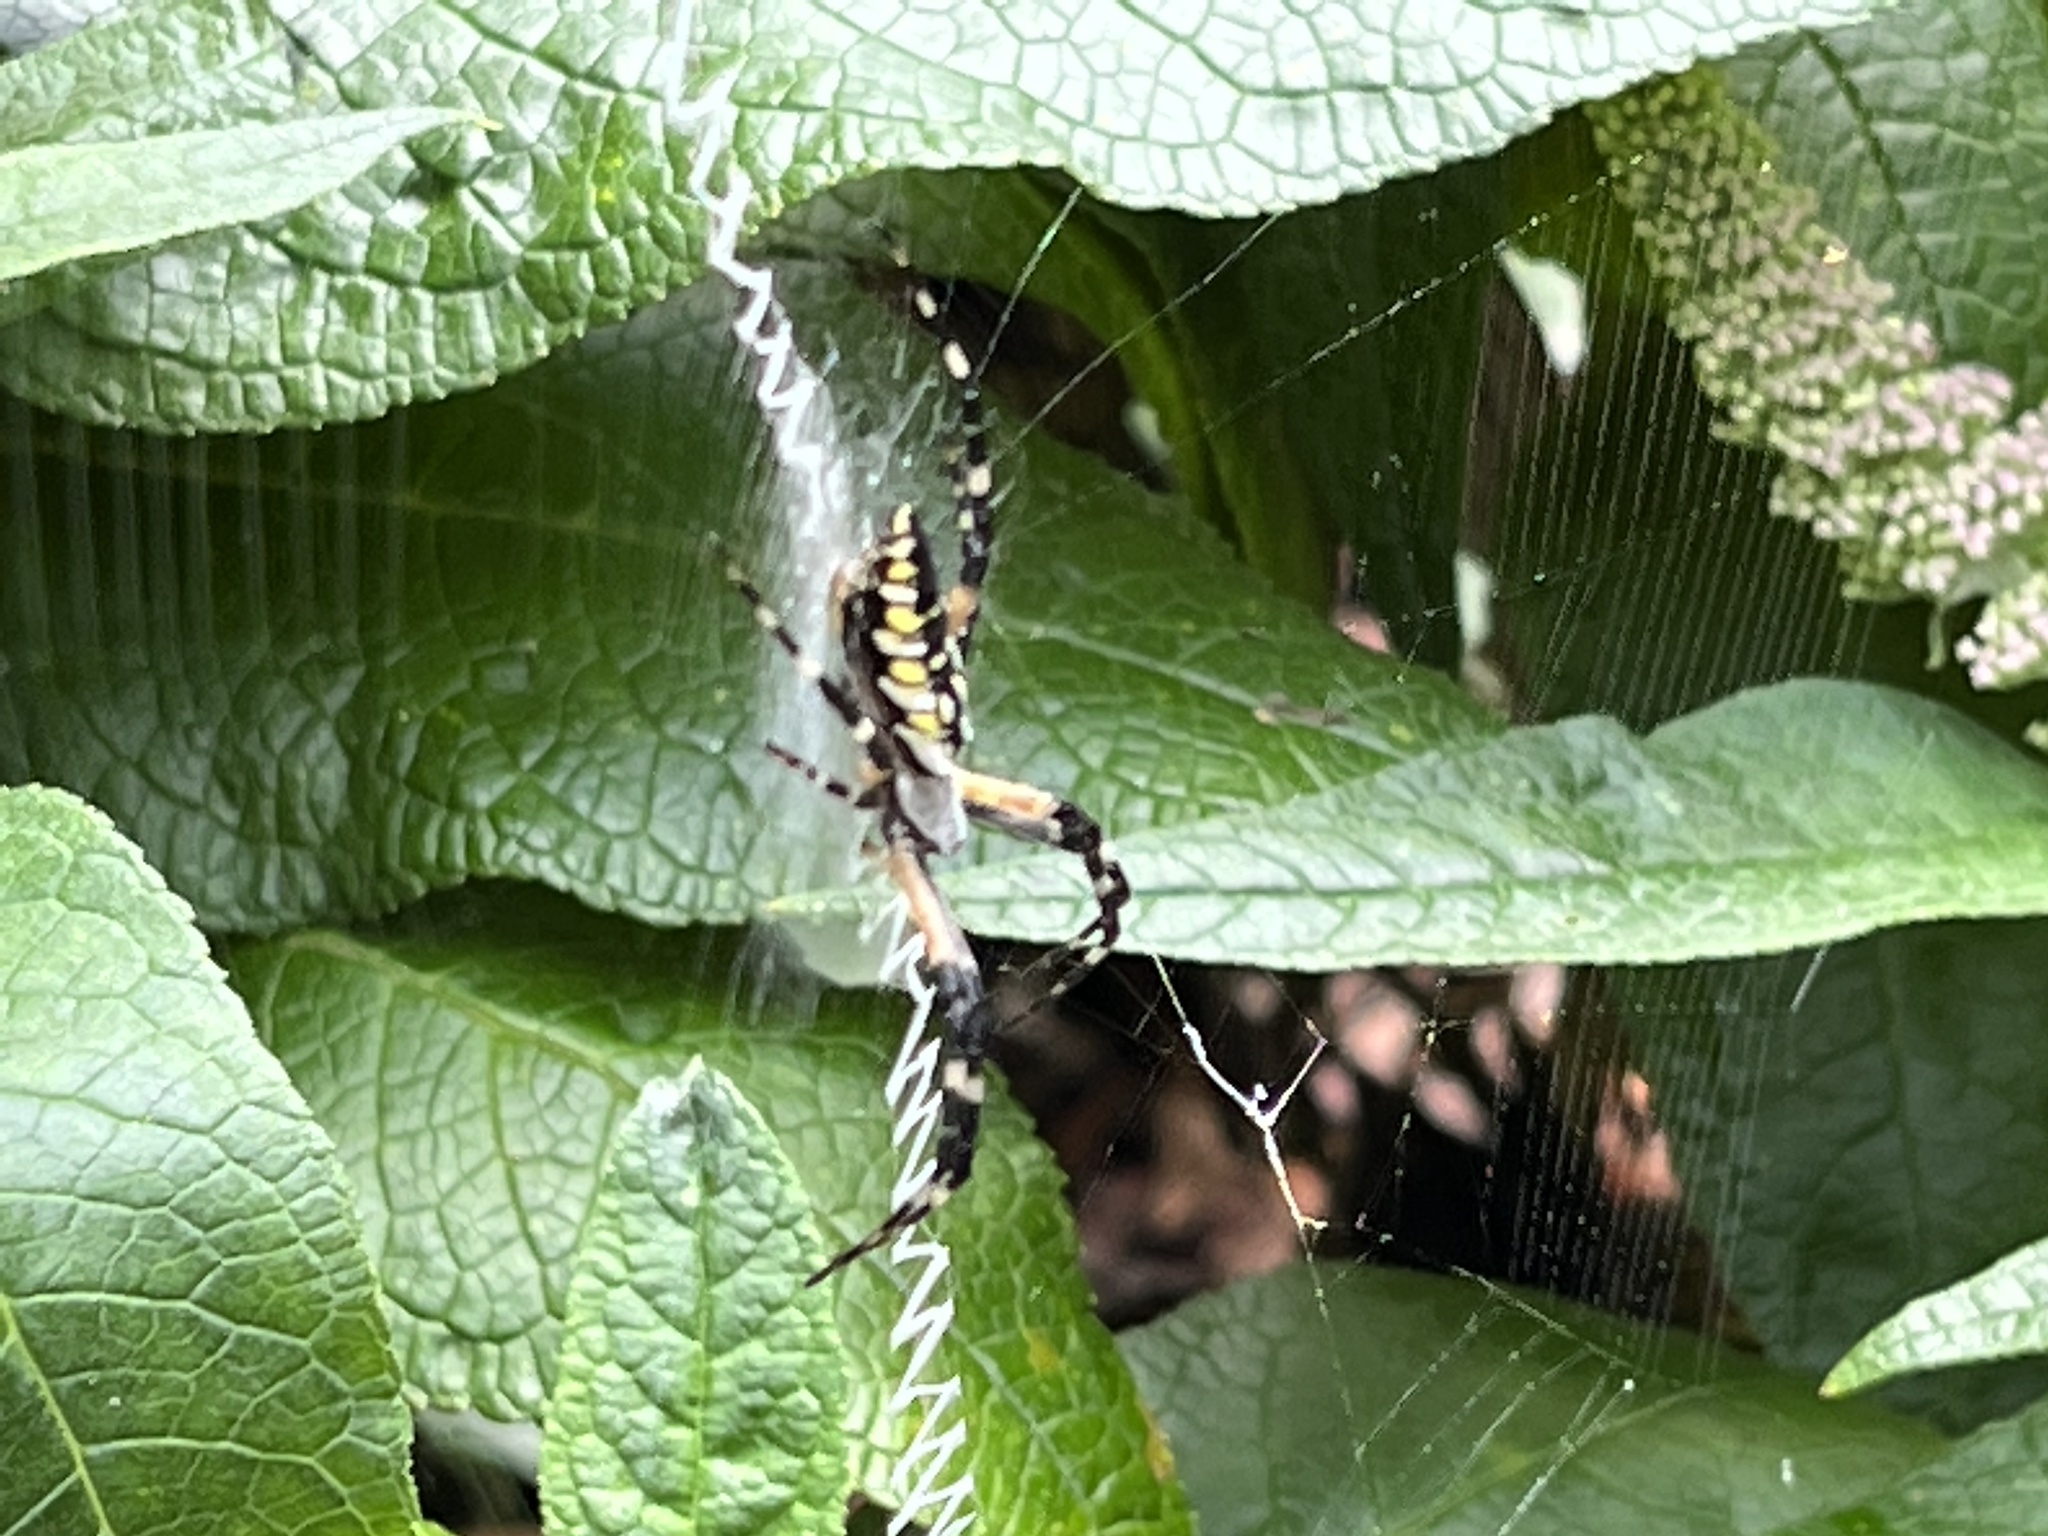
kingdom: Animalia
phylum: Arthropoda
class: Arachnida
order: Araneae
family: Araneidae
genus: Argiope
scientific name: Argiope aurantia
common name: Orb weavers
